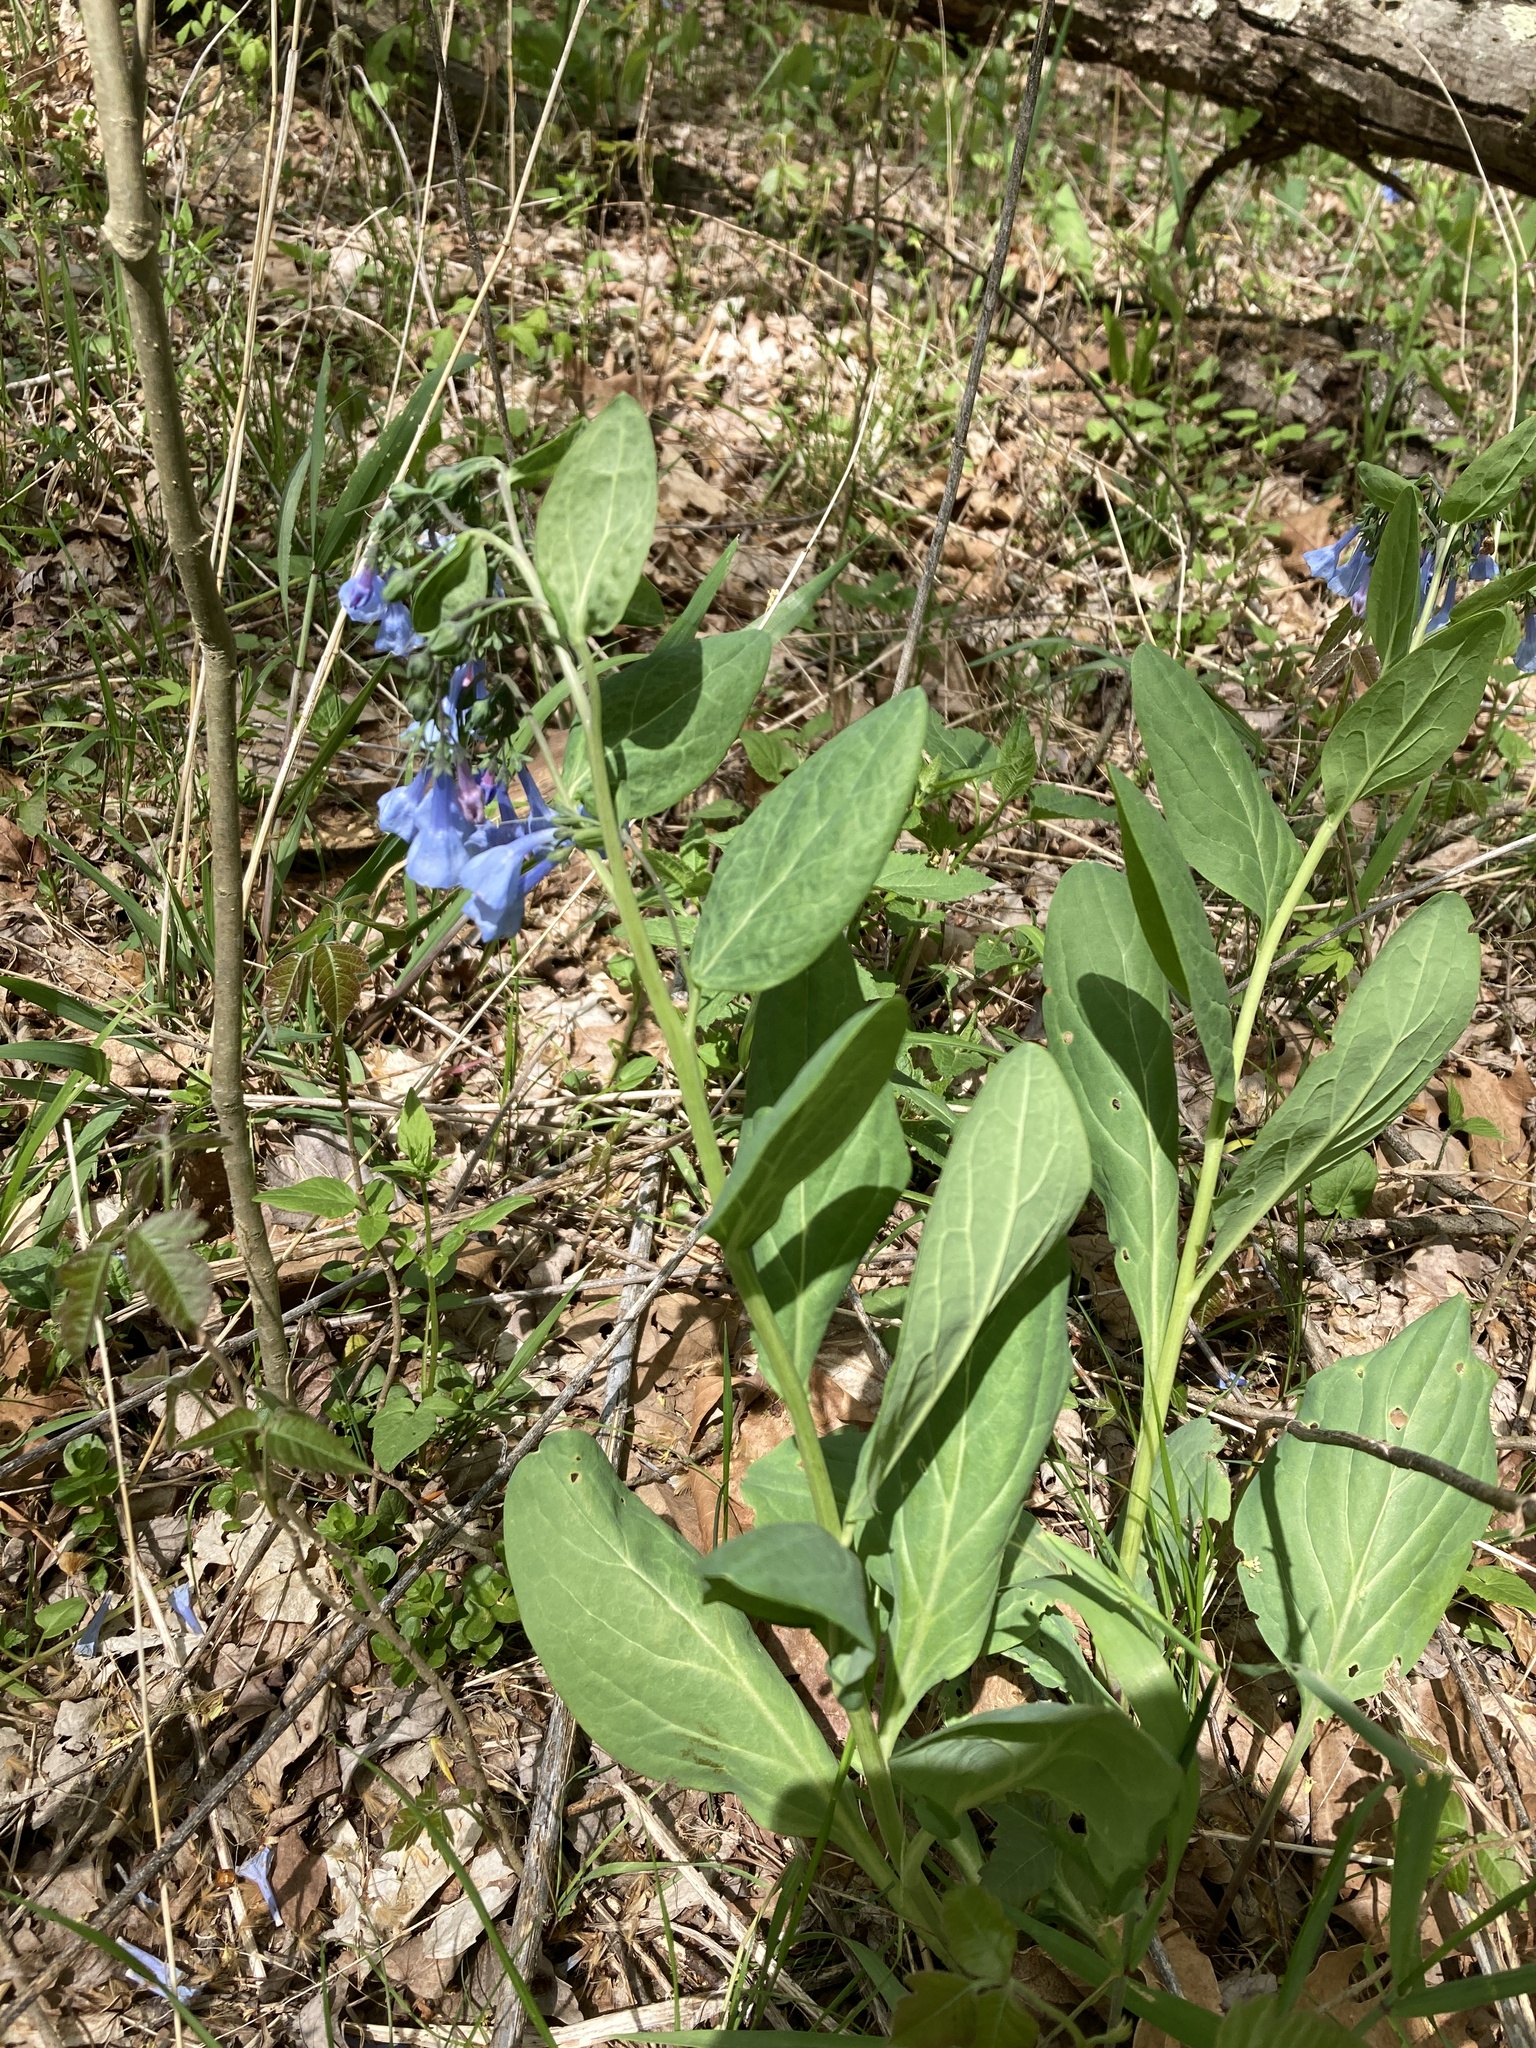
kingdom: Plantae
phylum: Tracheophyta
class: Magnoliopsida
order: Boraginales
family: Boraginaceae
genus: Mertensia
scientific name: Mertensia virginica
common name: Virginia bluebells
